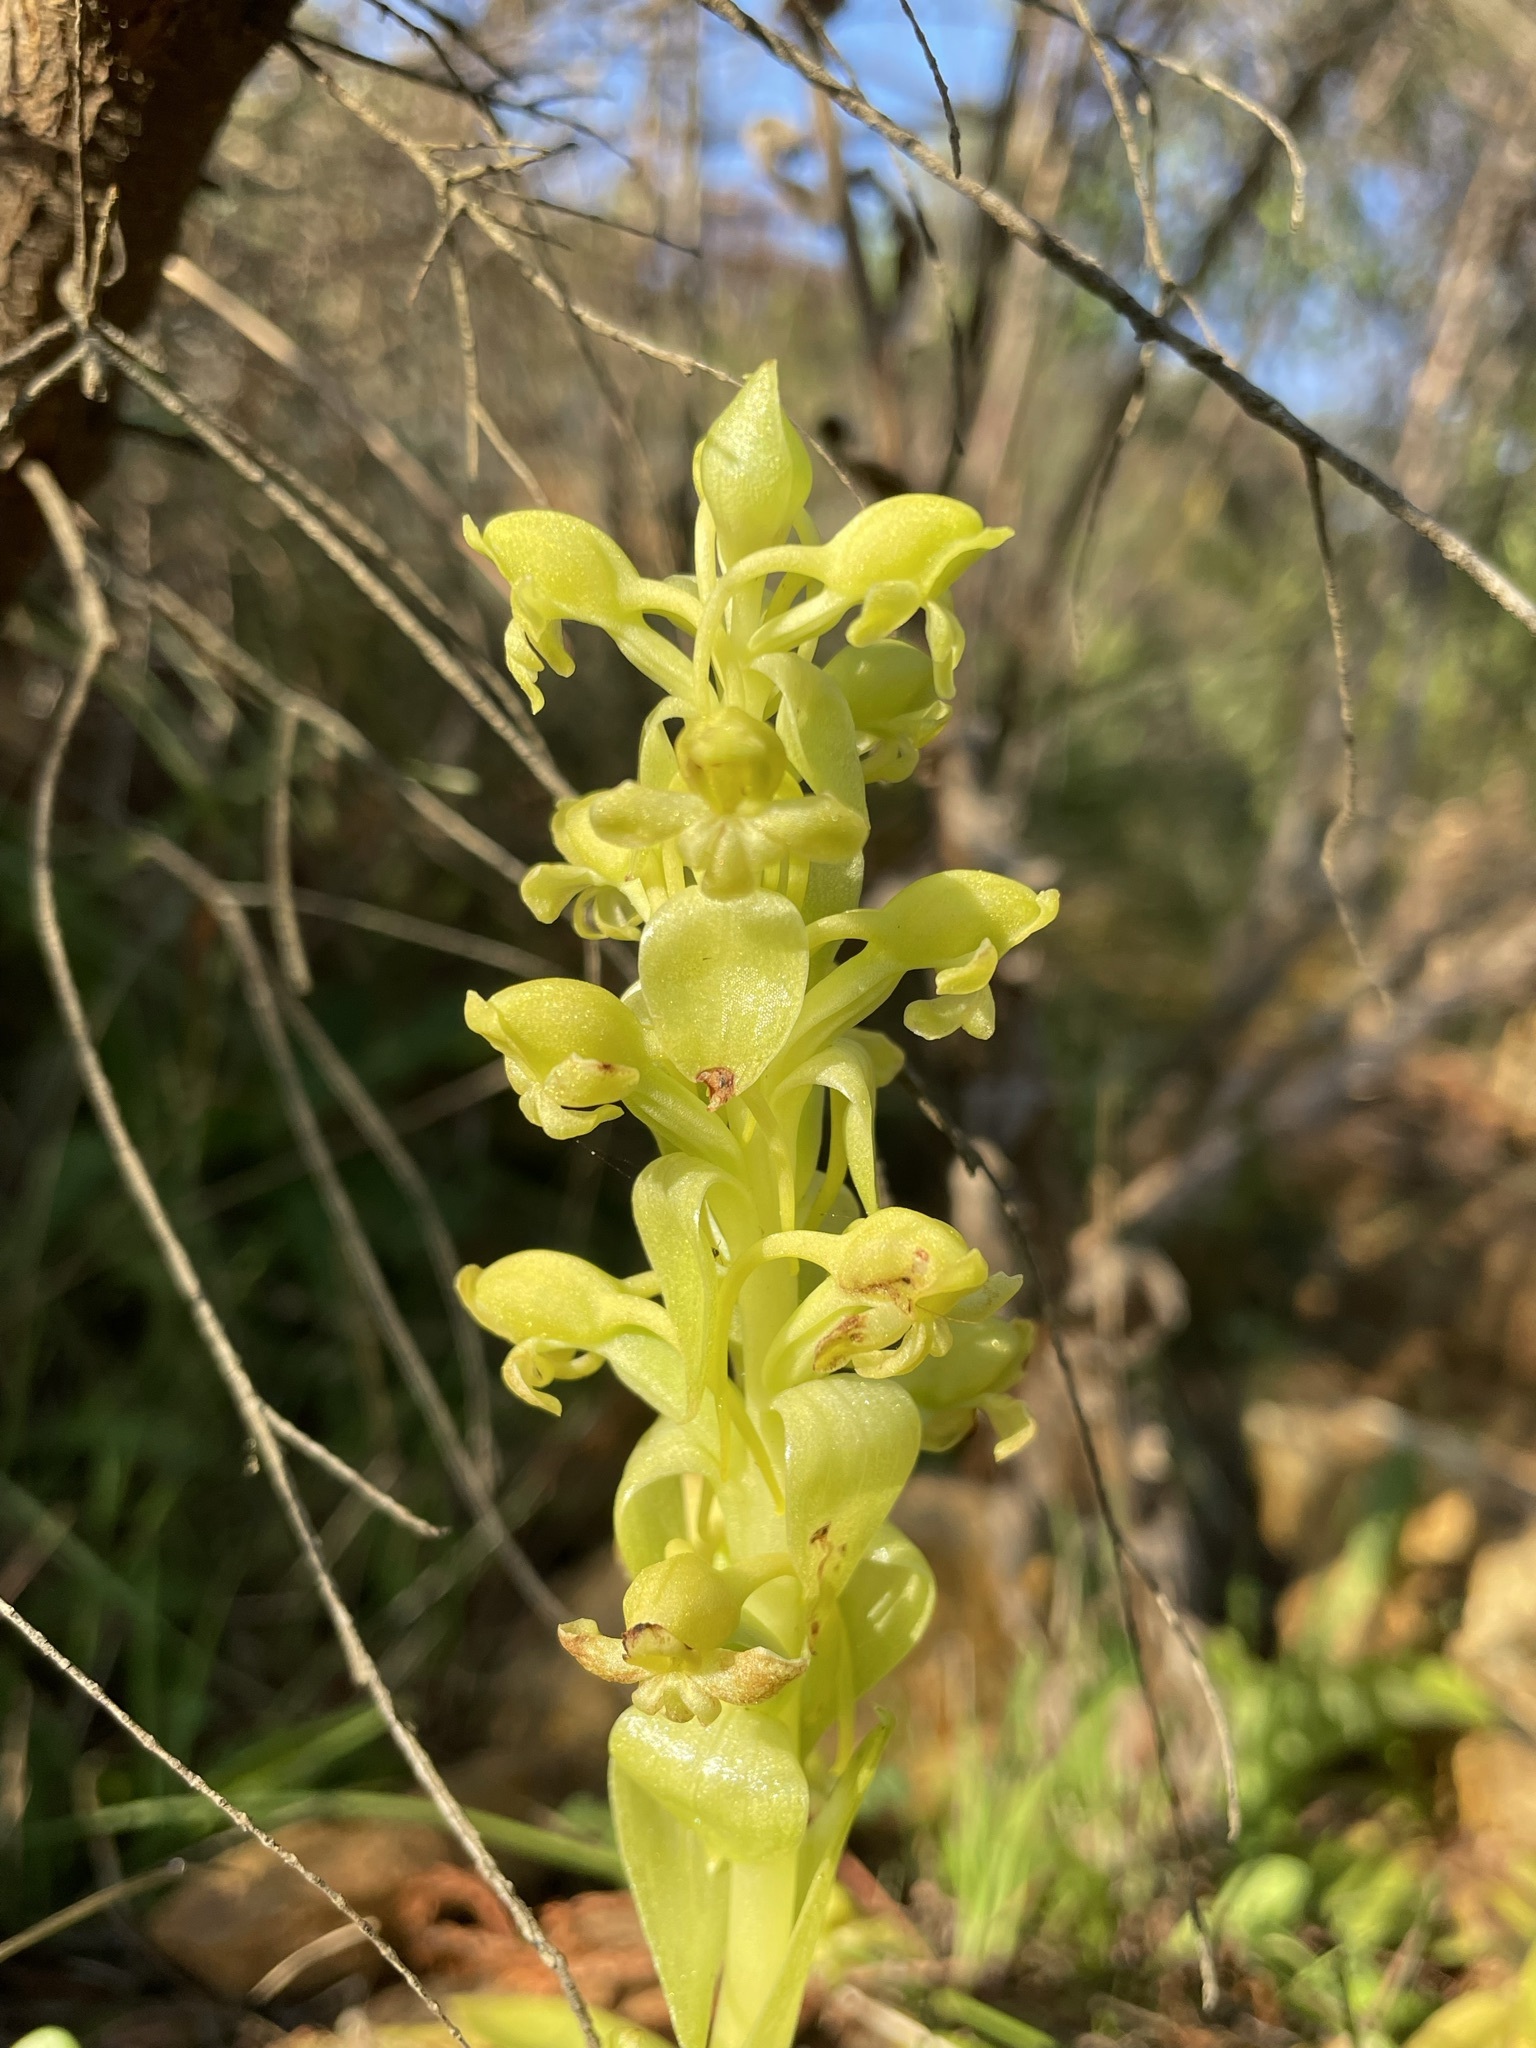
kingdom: Plantae
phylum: Tracheophyta
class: Liliopsida
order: Asparagales
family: Orchidaceae
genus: Satyrium
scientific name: Satyrium odorum
